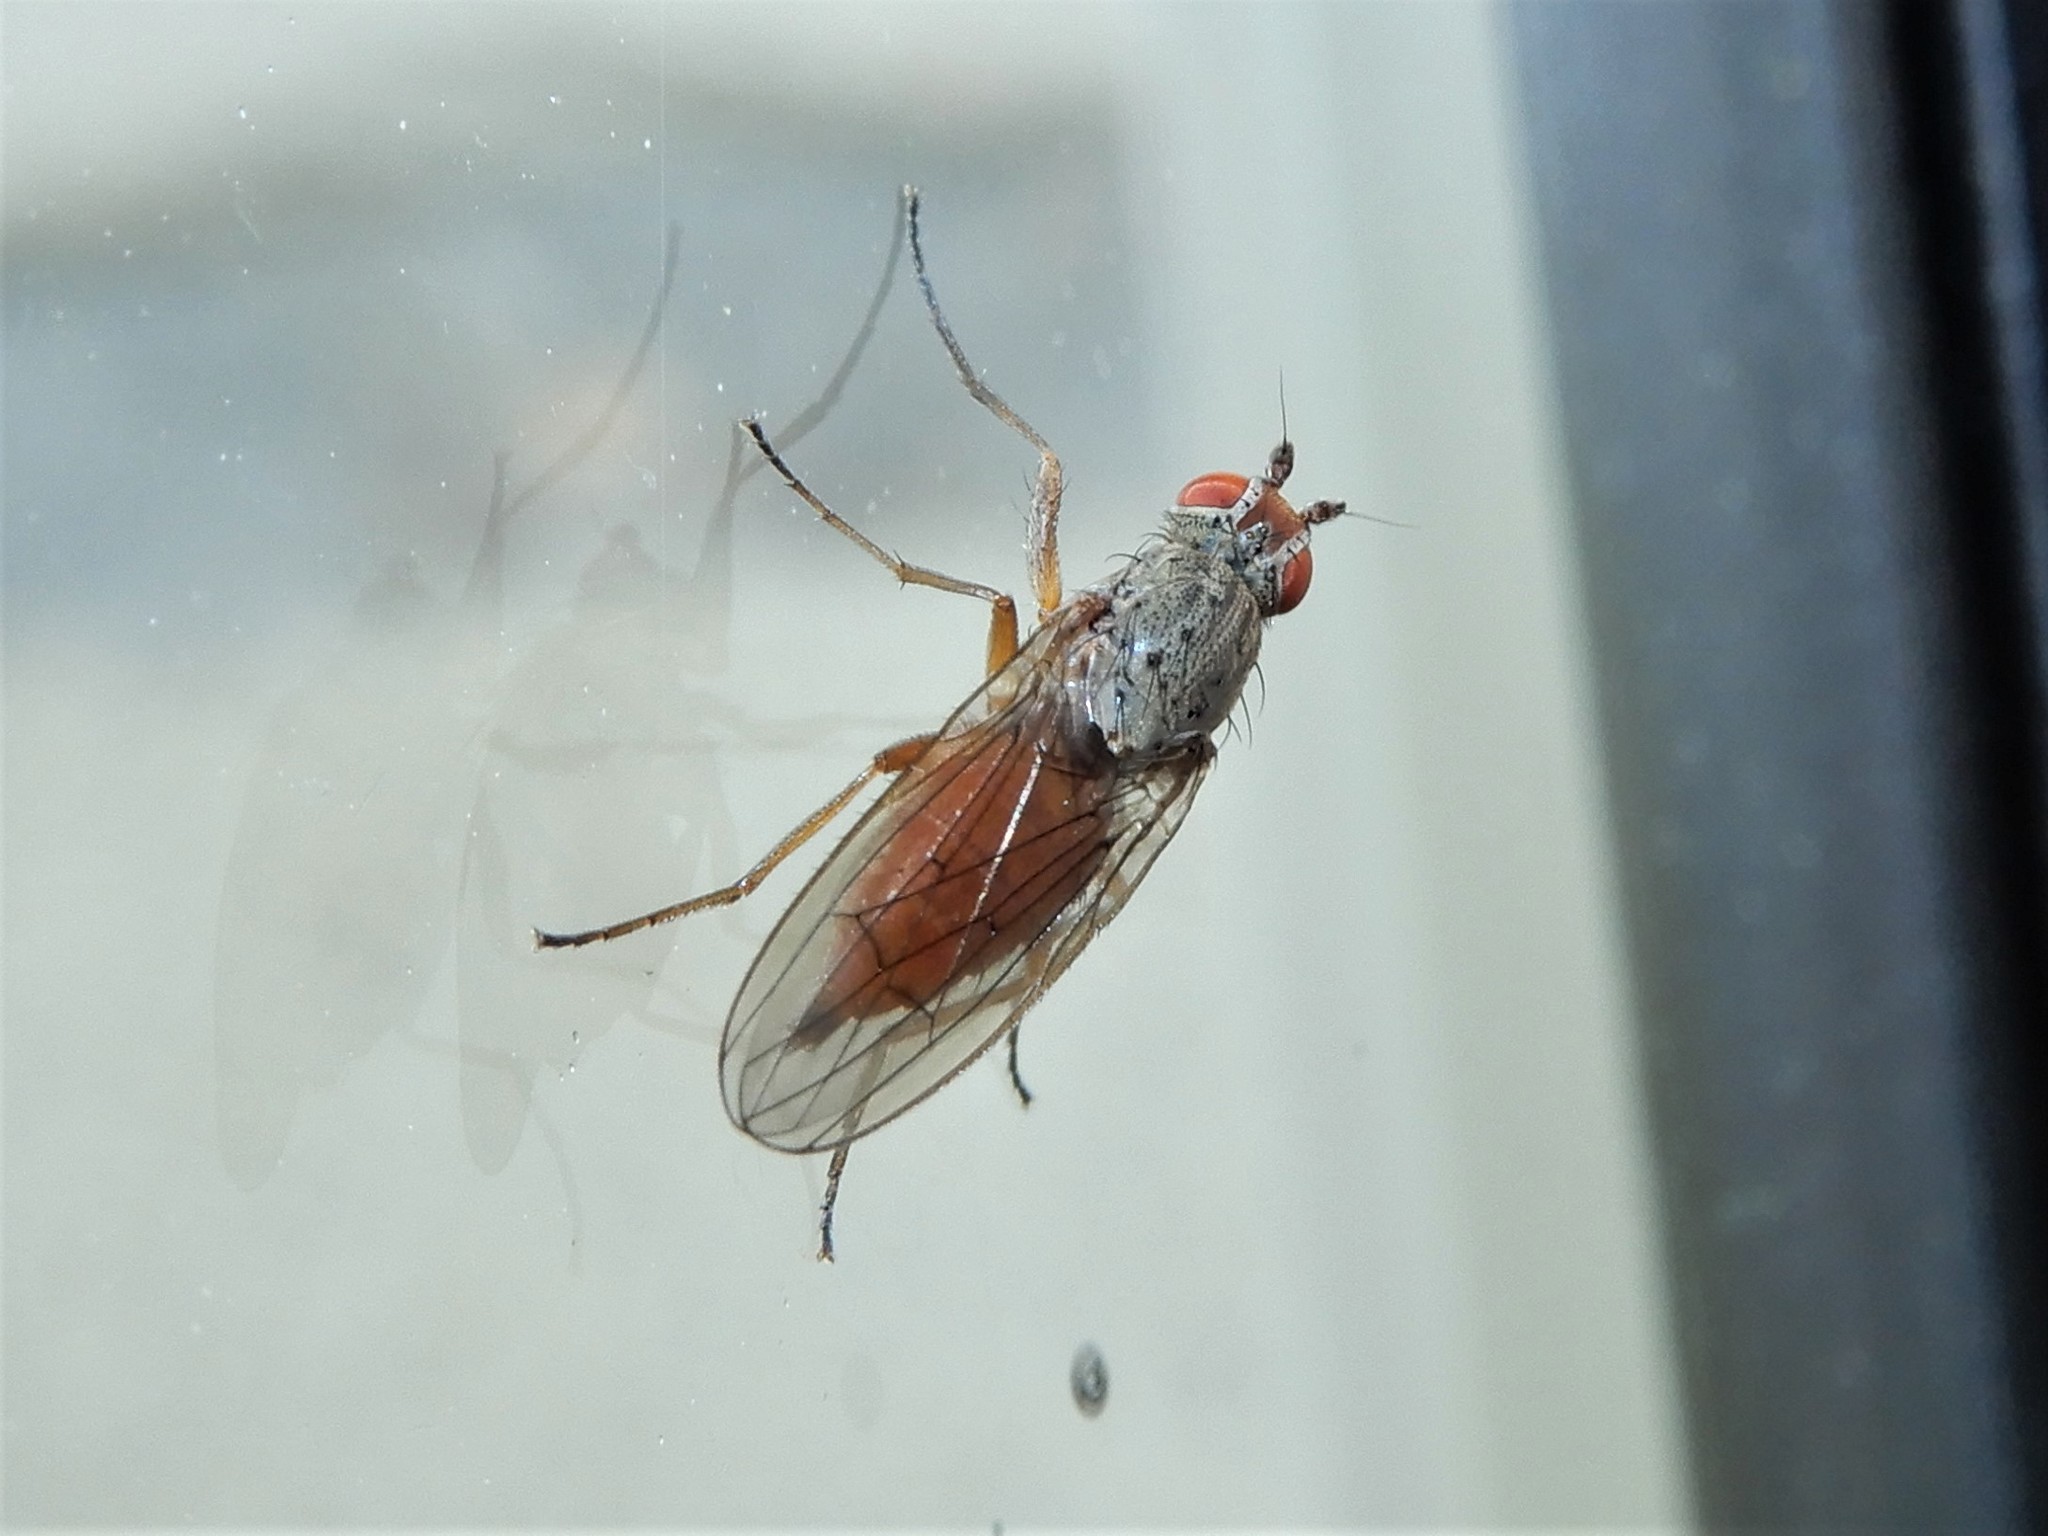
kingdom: Animalia
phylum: Arthropoda
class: Insecta
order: Diptera
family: Heleomyzidae
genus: Tephrochlamys
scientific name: Tephrochlamys rufiventris
